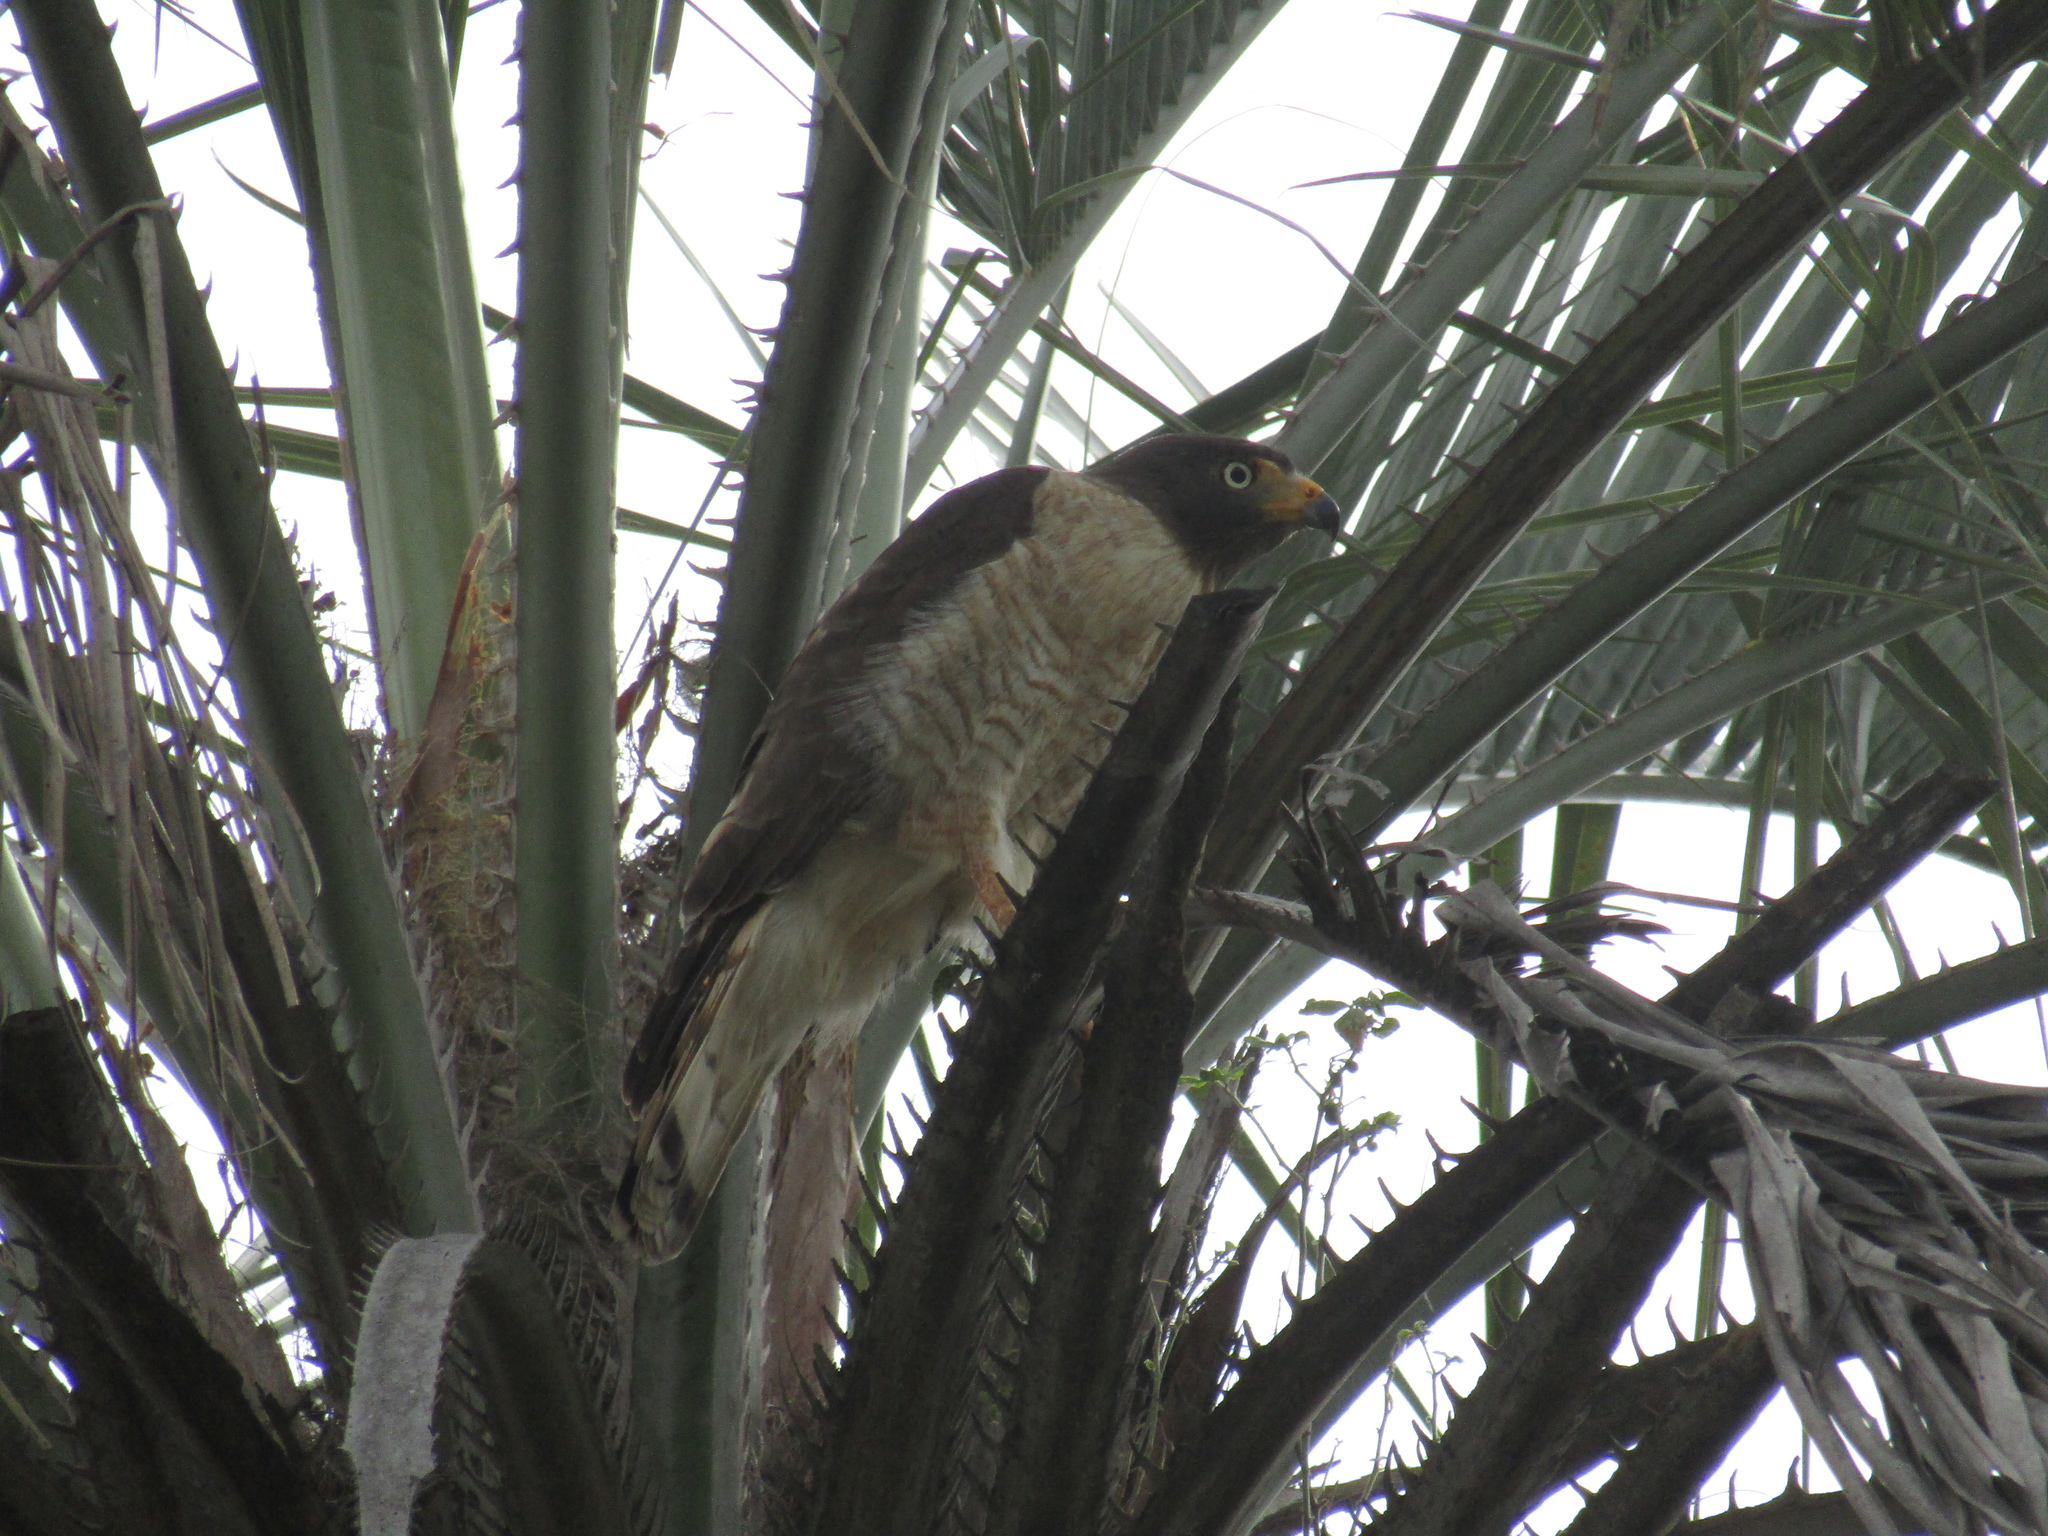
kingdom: Animalia
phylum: Chordata
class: Aves
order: Accipitriformes
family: Accipitridae
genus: Rupornis
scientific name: Rupornis magnirostris
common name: Roadside hawk
